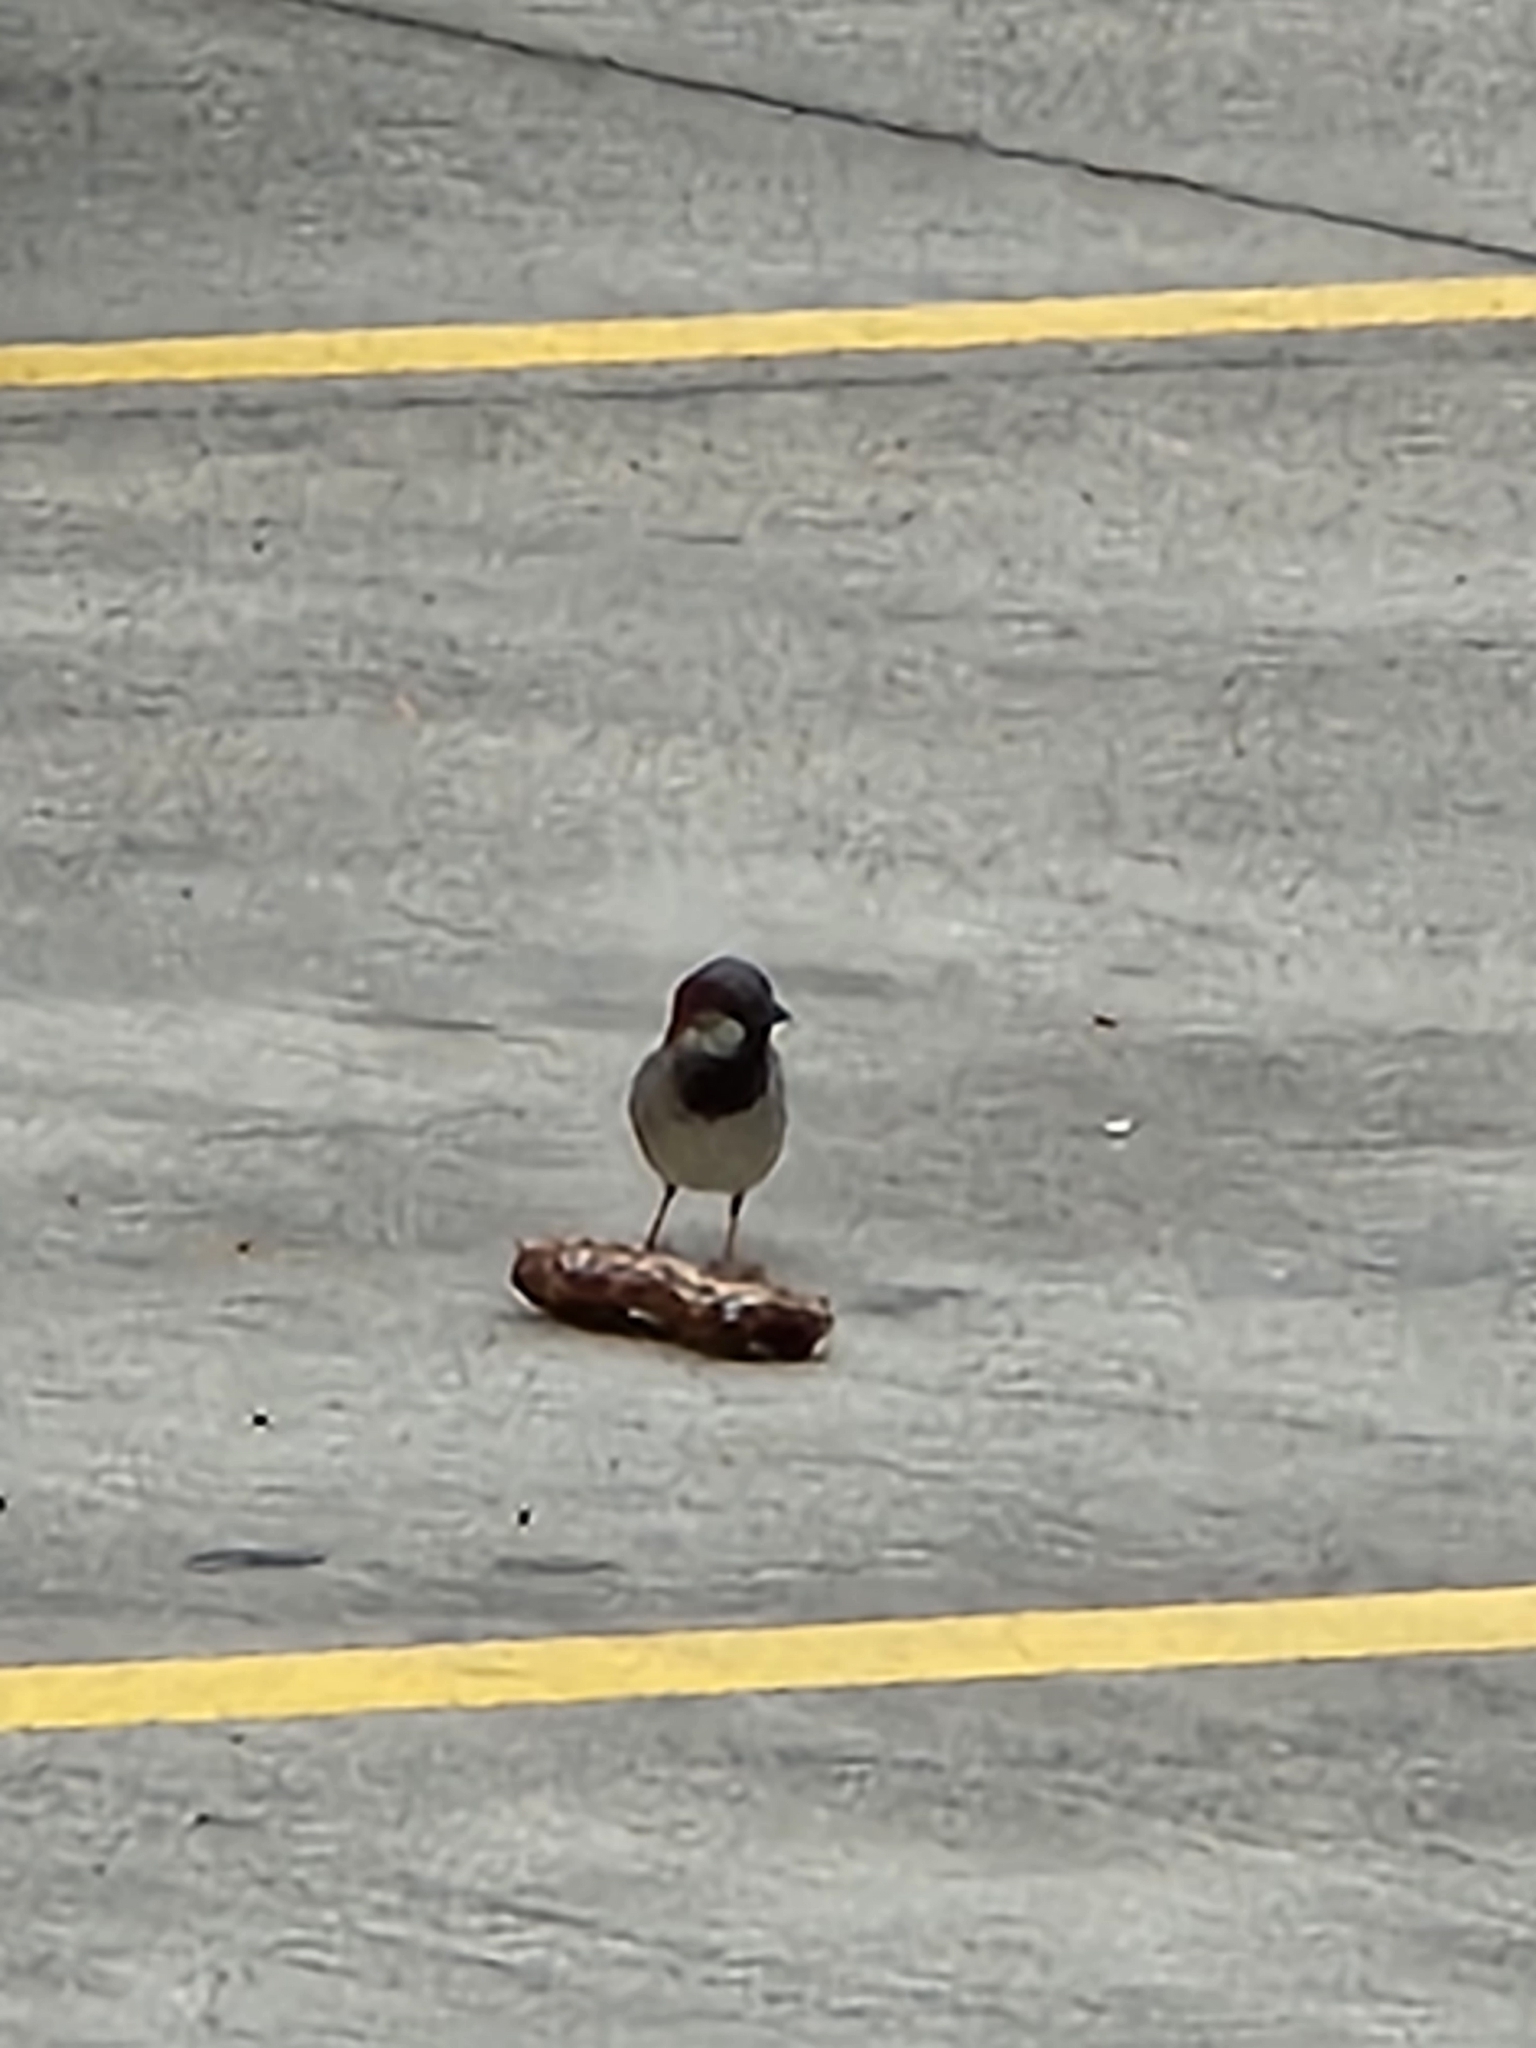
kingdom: Animalia
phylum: Chordata
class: Aves
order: Passeriformes
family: Passeridae
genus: Passer
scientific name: Passer domesticus
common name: House sparrow
